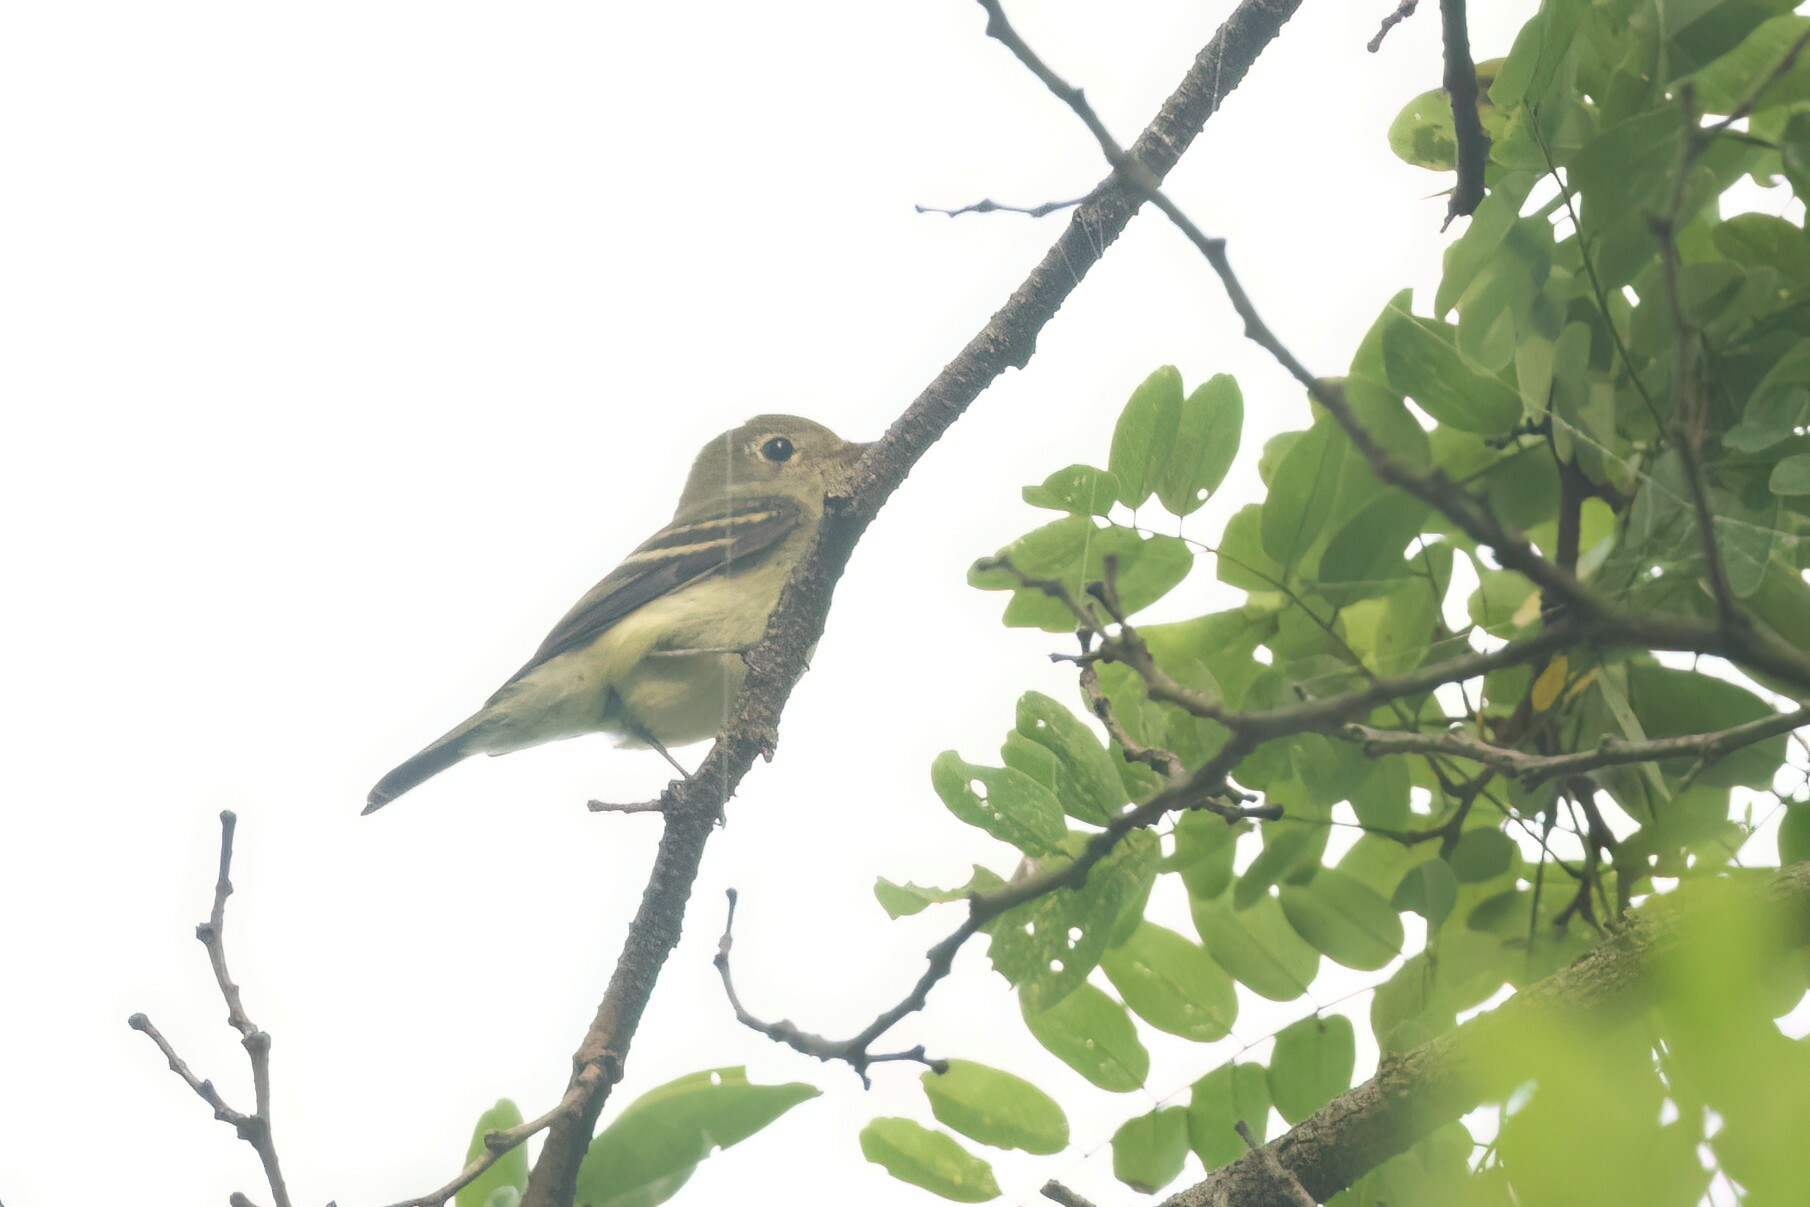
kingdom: Animalia
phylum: Chordata
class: Aves
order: Passeriformes
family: Tyrannidae
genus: Empidonax
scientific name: Empidonax flaviventris
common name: Yellow-bellied flycatcher
